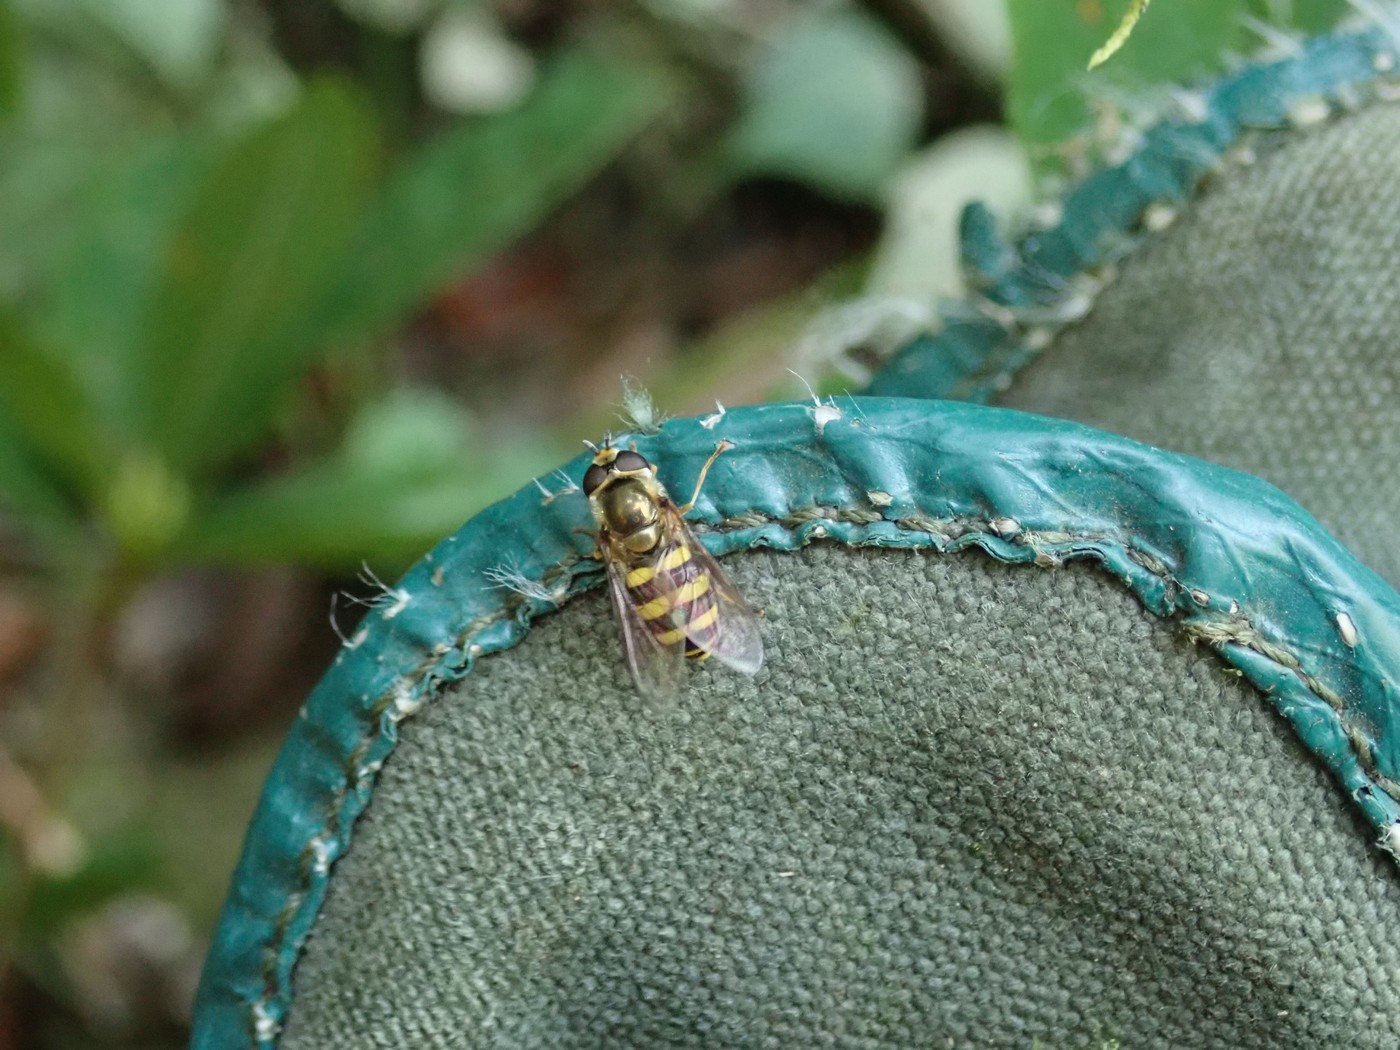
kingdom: Animalia
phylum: Arthropoda
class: Insecta
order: Diptera
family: Syrphidae
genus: Eupeodes
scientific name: Eupeodes
